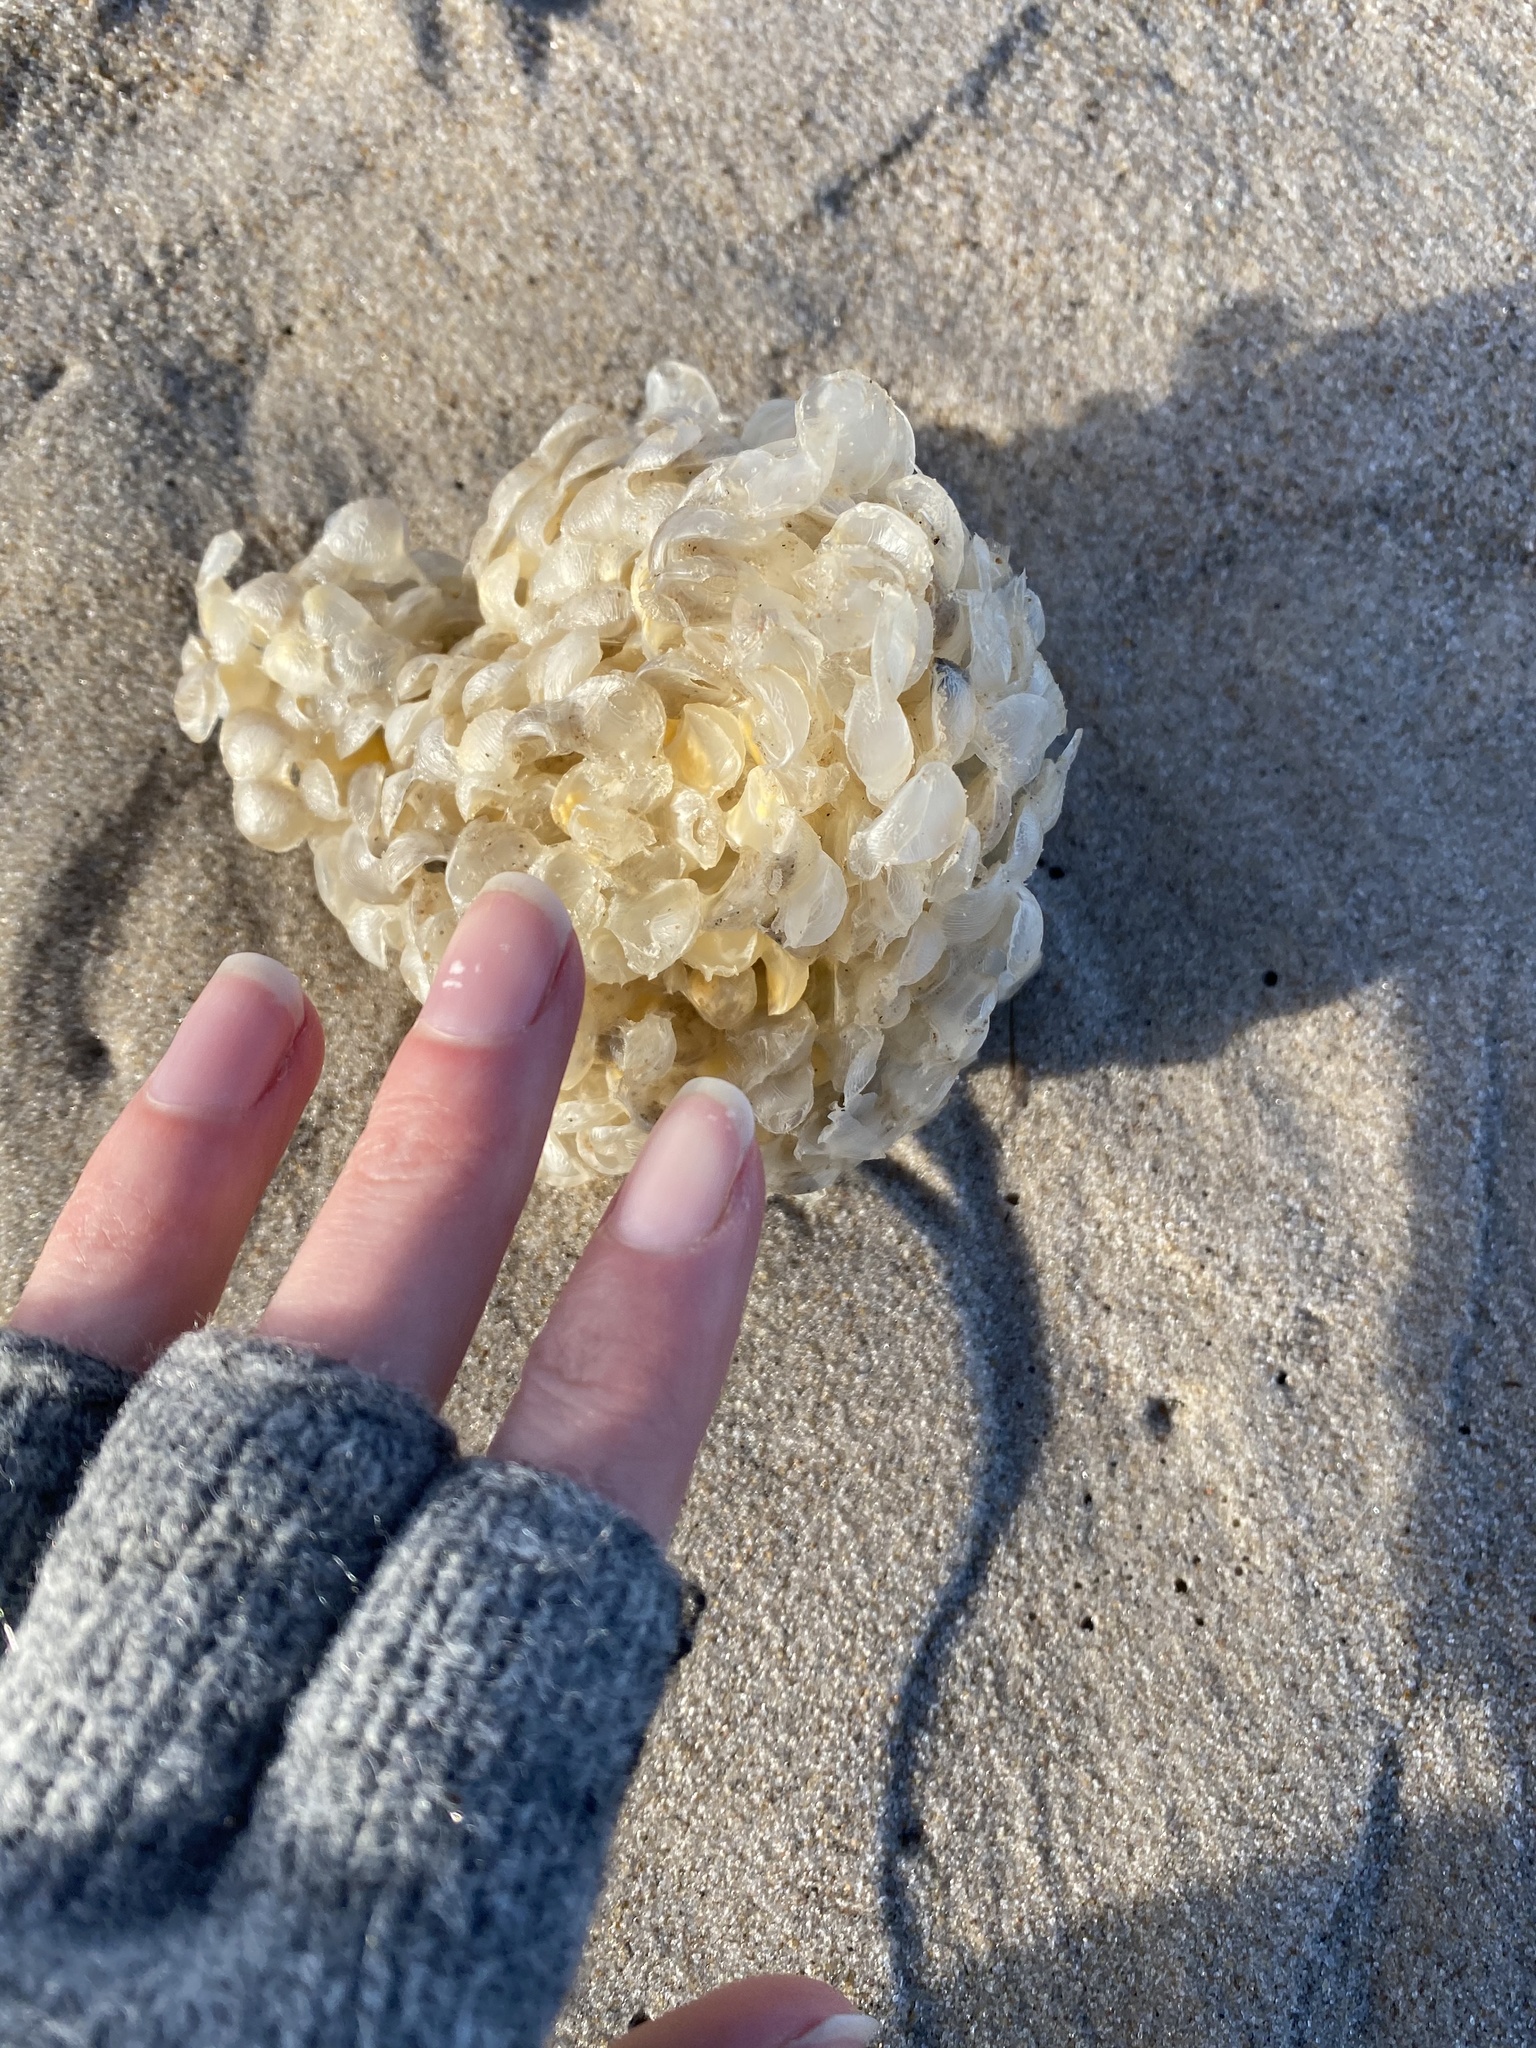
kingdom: Animalia
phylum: Mollusca
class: Gastropoda
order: Neogastropoda
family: Buccinidae
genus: Buccinum
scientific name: Buccinum undatum
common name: Common whelk
